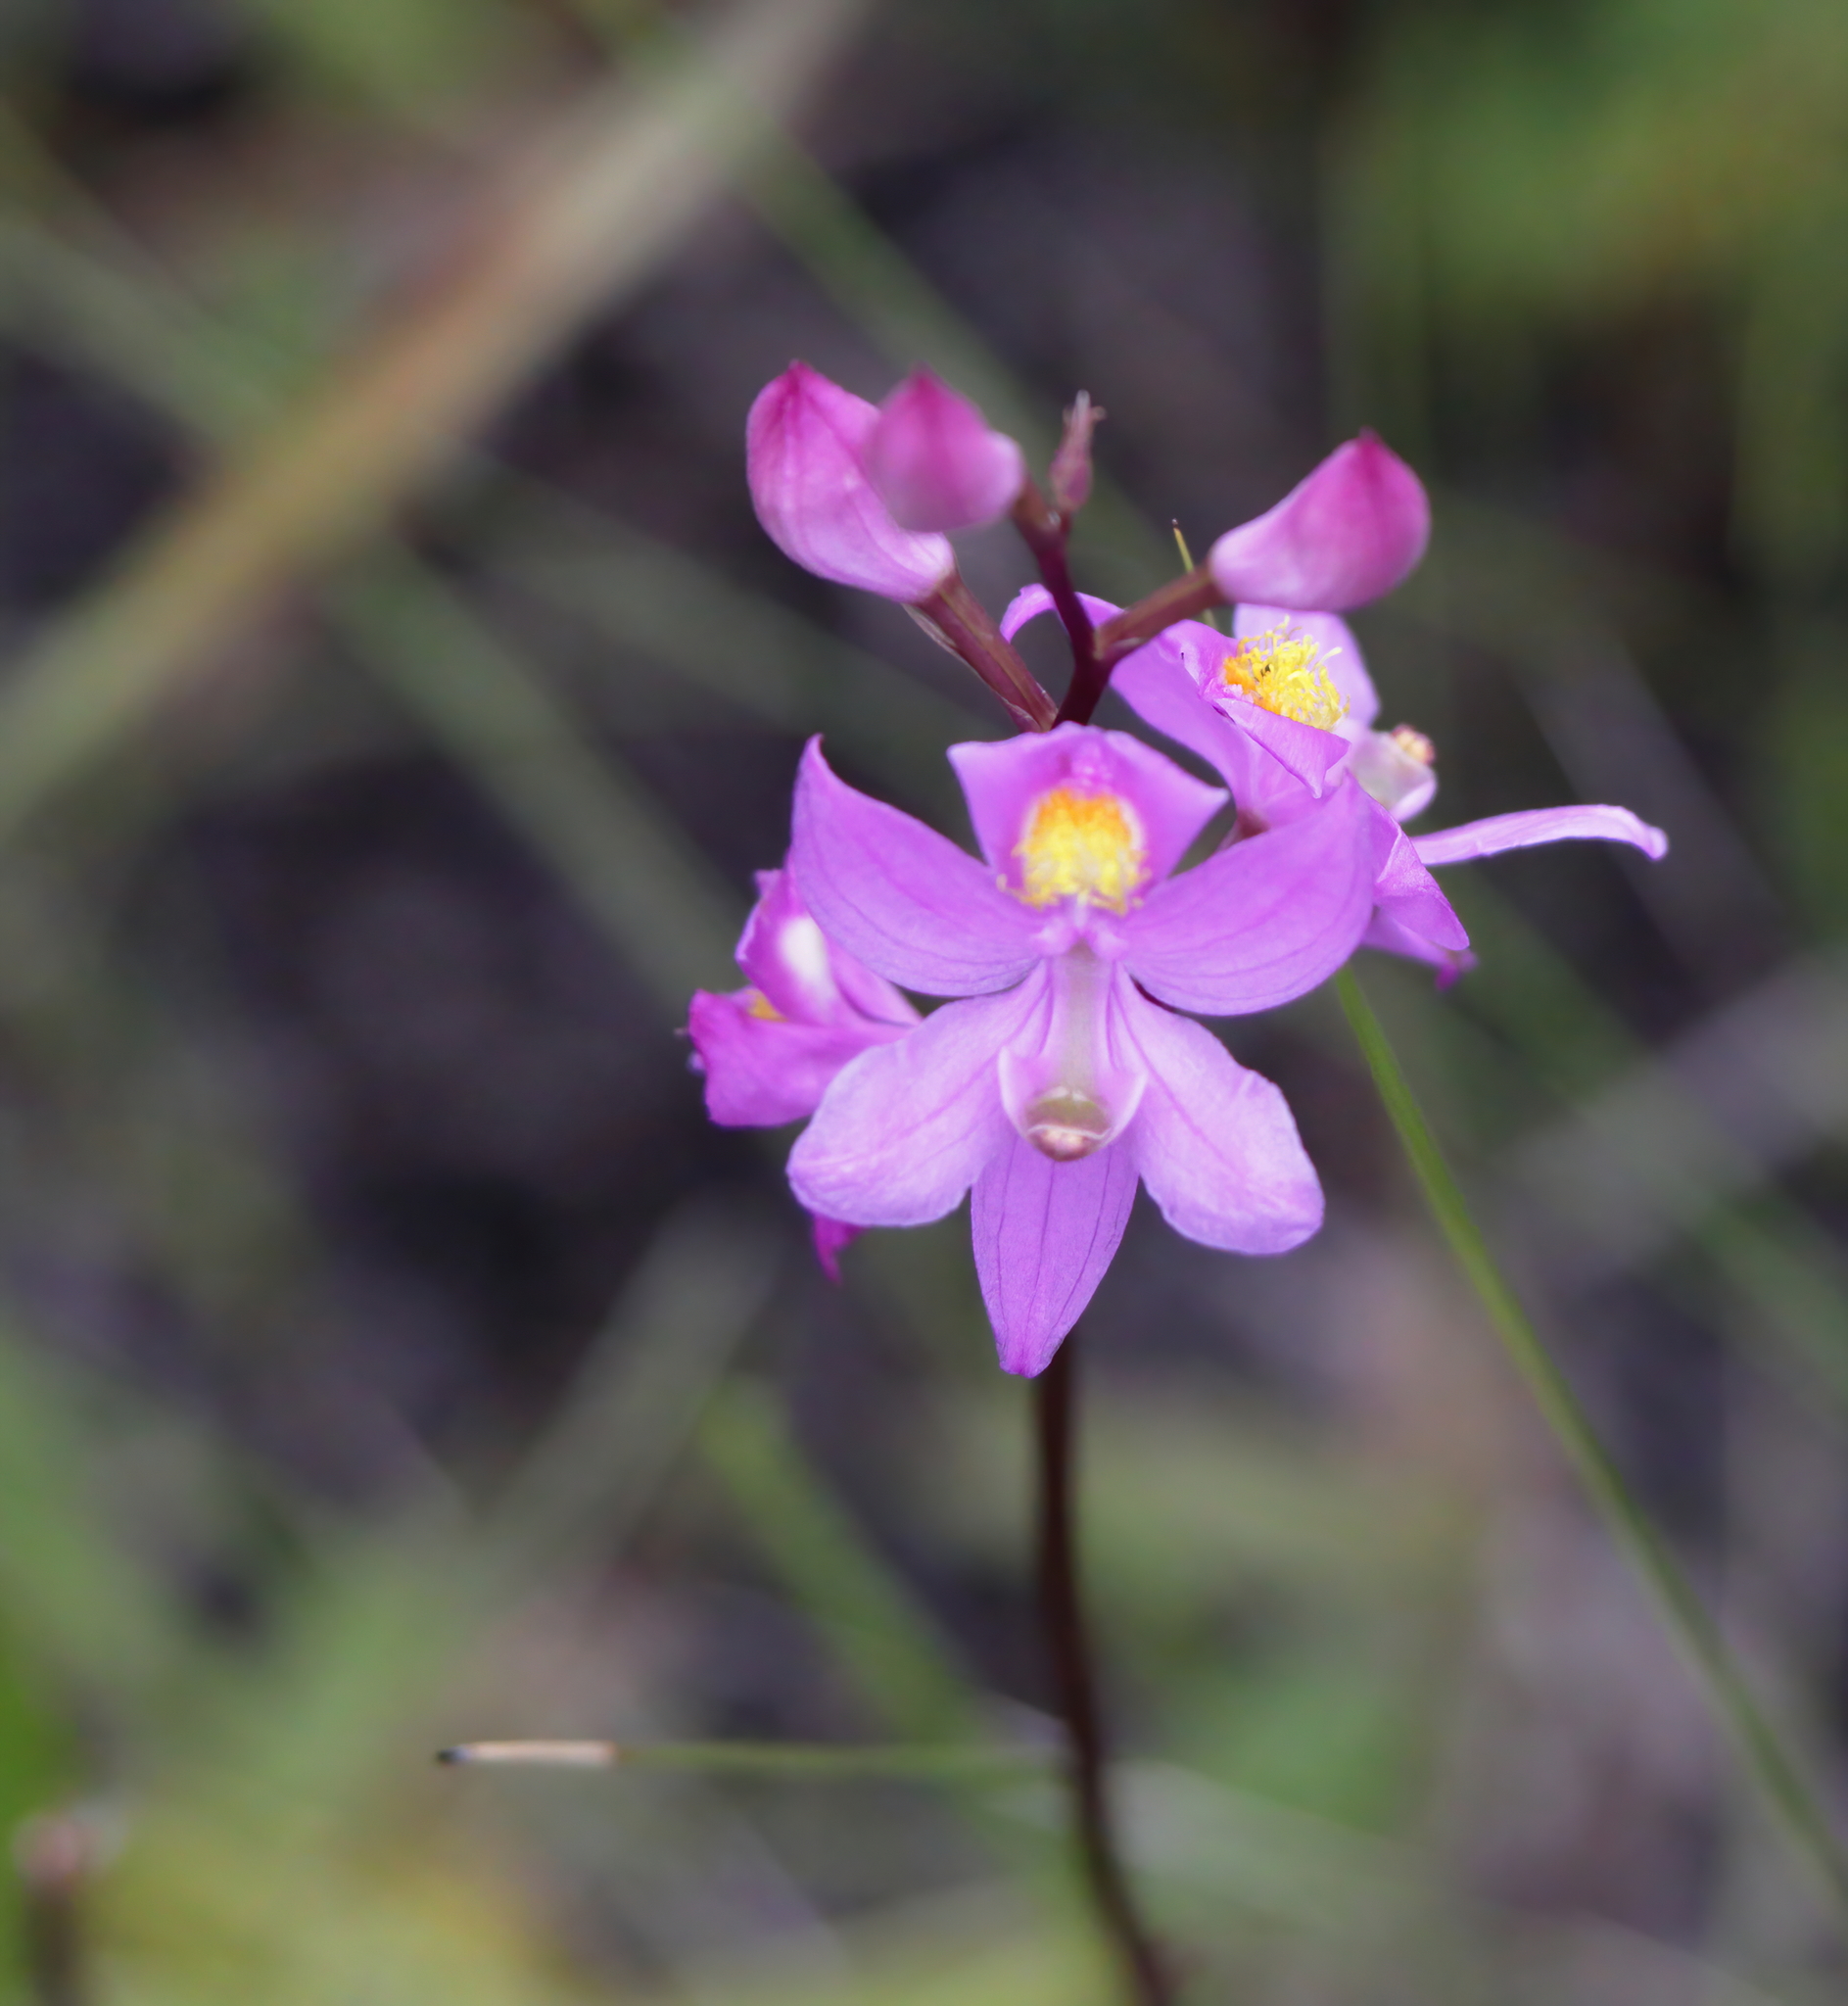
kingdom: Plantae
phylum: Tracheophyta
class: Liliopsida
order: Asparagales
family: Orchidaceae
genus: Calopogon
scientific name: Calopogon multiflorus
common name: Many-flowered grass-pink orchid
